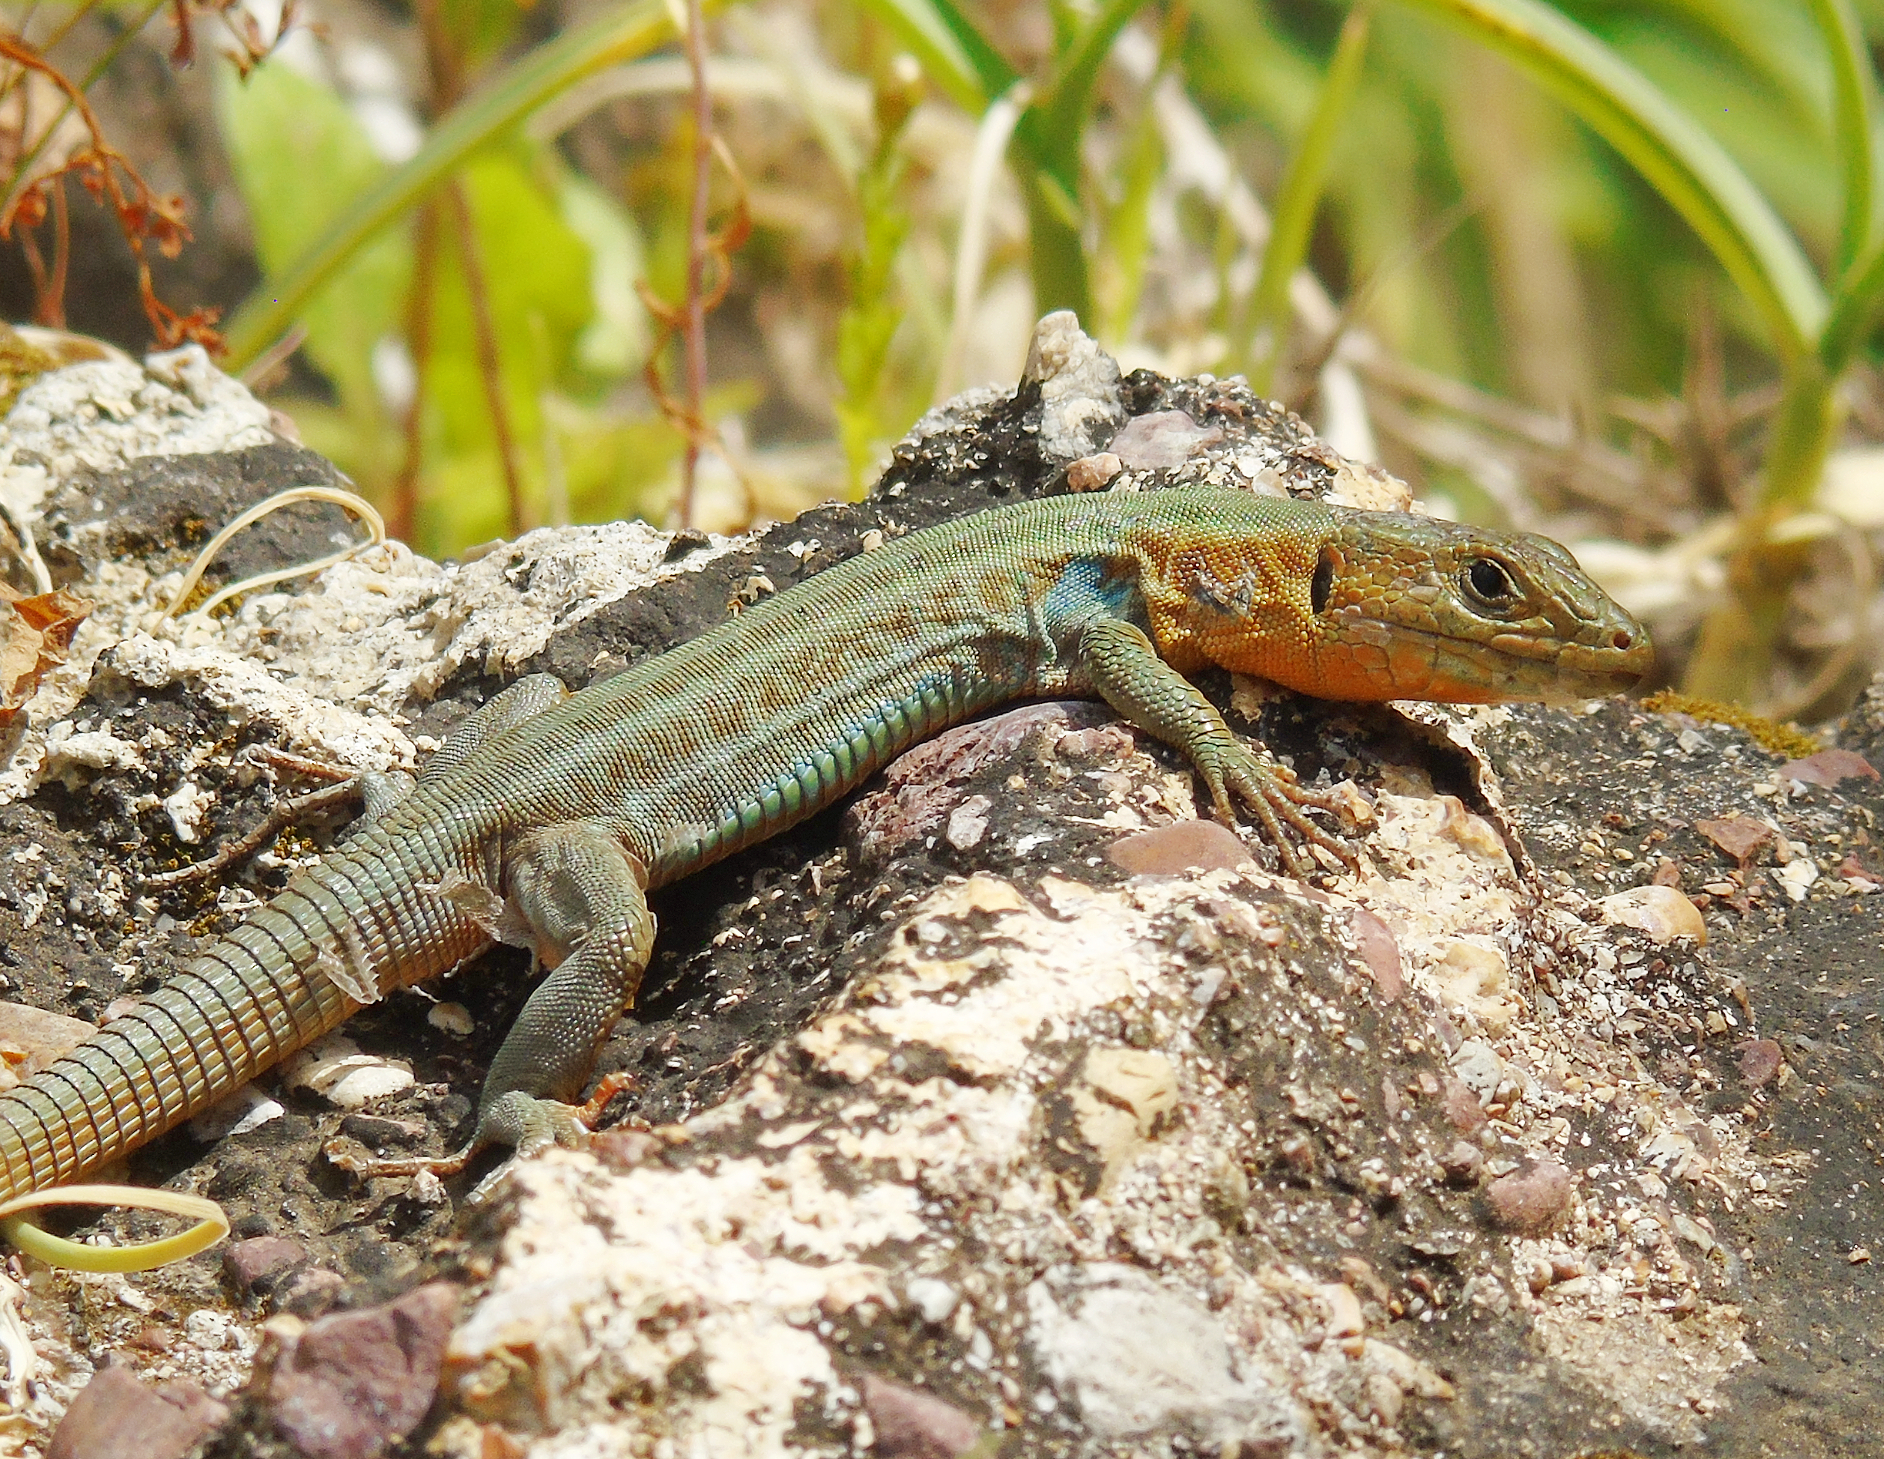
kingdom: Animalia
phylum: Chordata
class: Squamata
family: Lacertidae
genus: Podarcis
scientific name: Podarcis peloponnesiacus
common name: Peloponnese wall lizard
